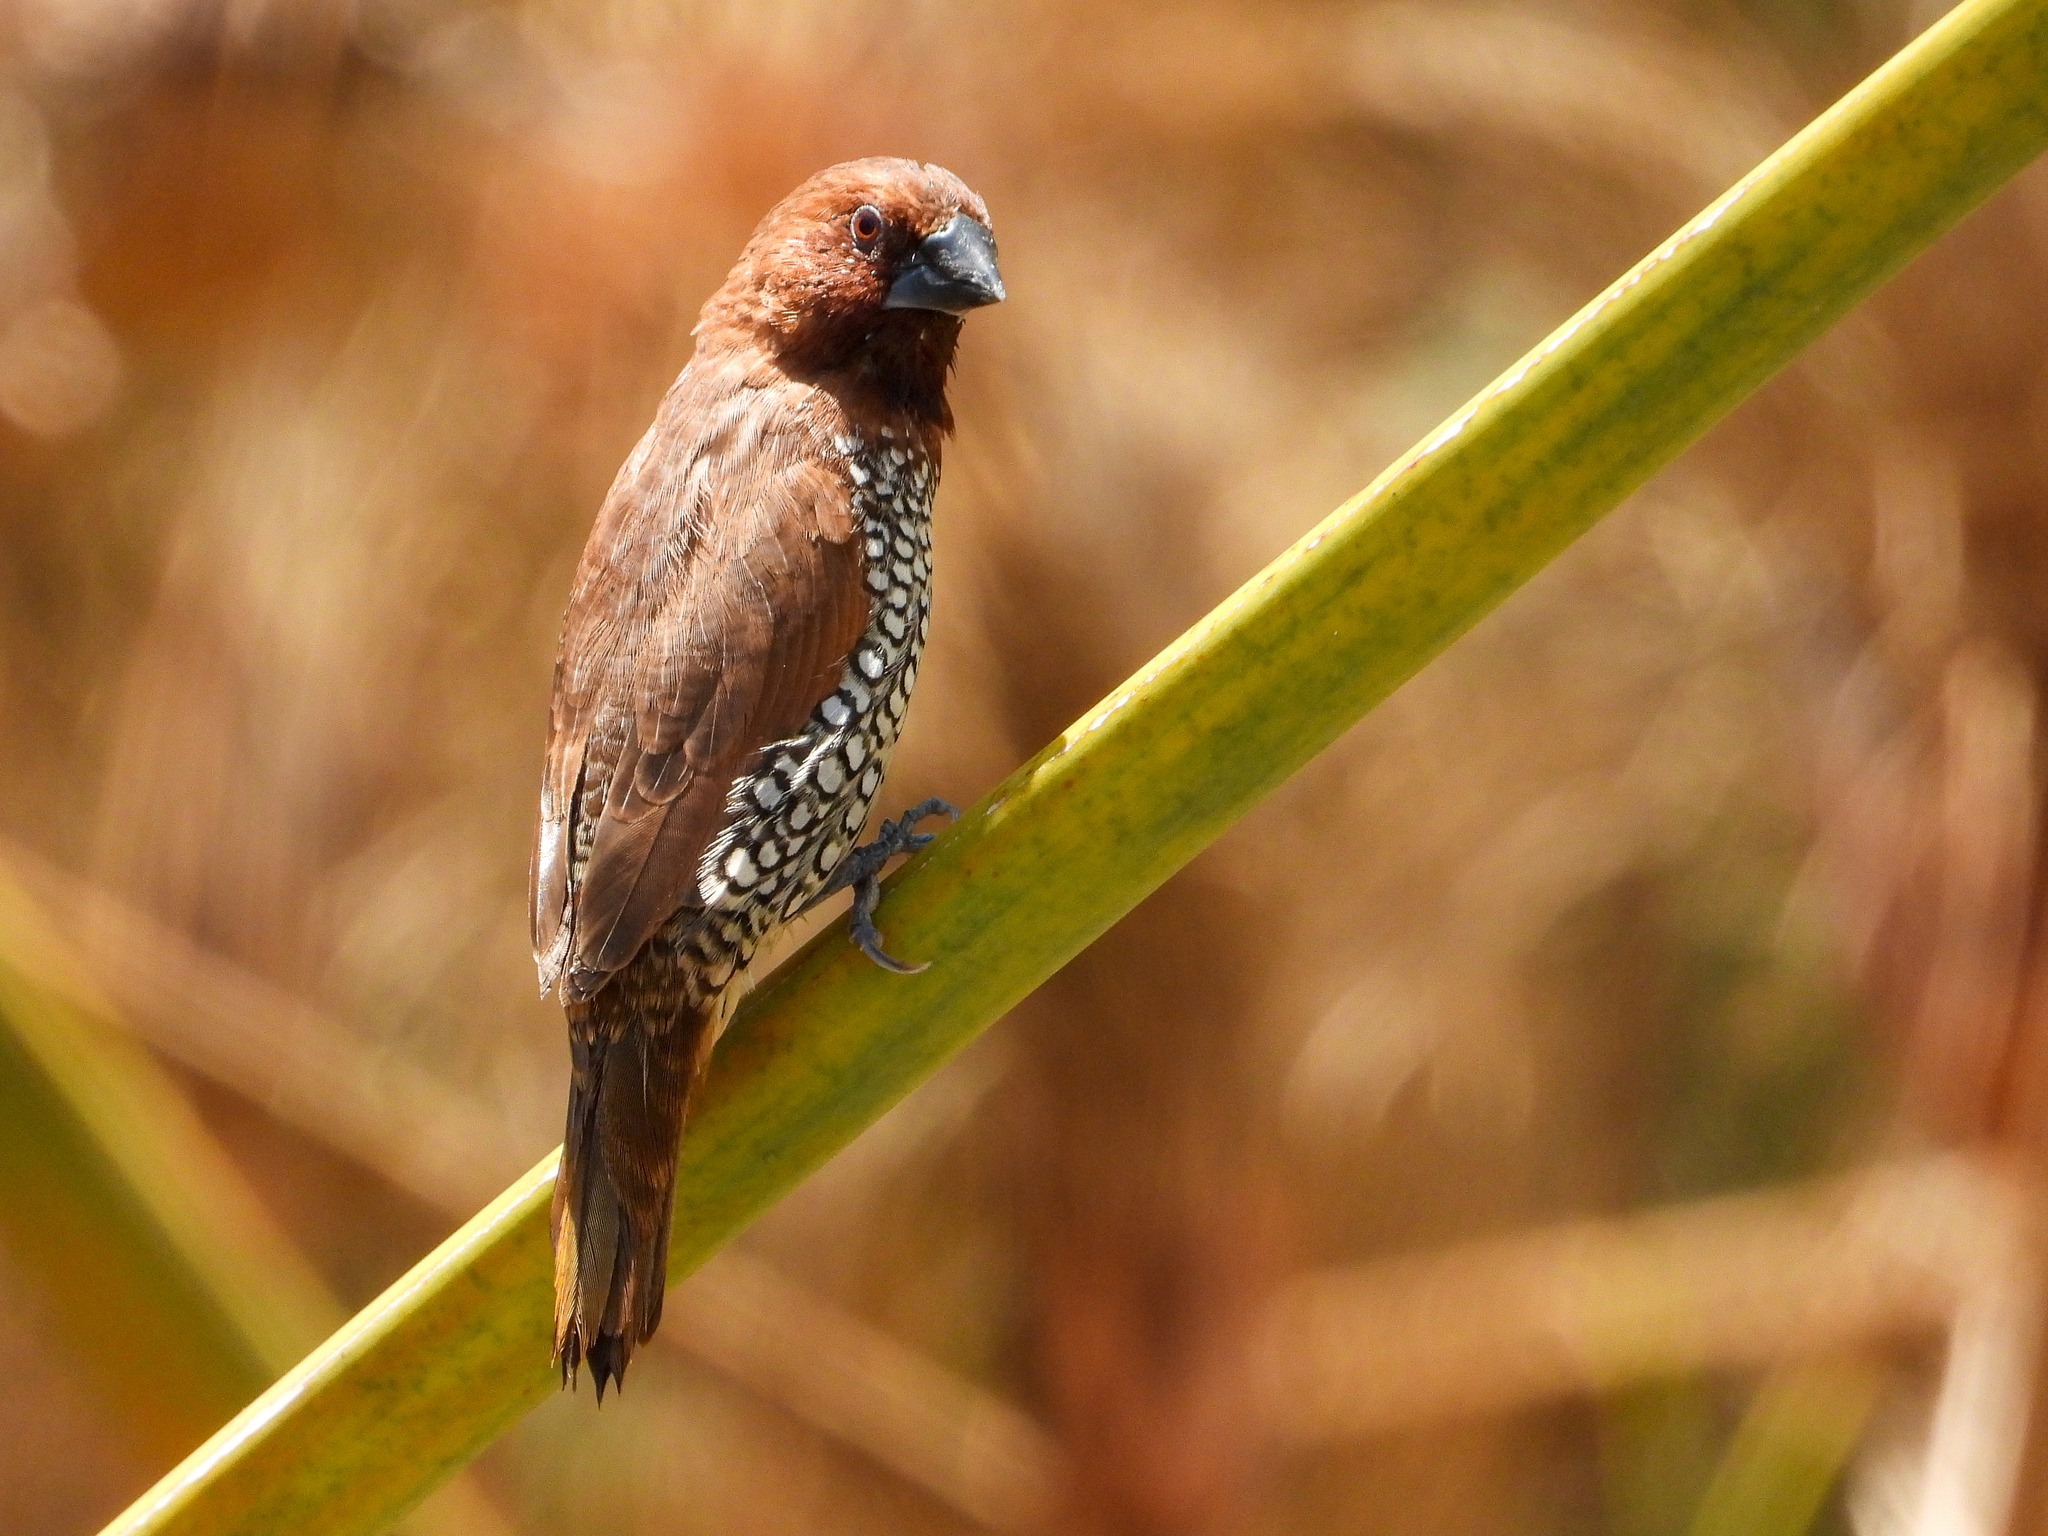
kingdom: Animalia
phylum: Chordata
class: Aves
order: Passeriformes
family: Estrildidae
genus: Lonchura
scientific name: Lonchura punctulata
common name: Scaly-breasted munia
